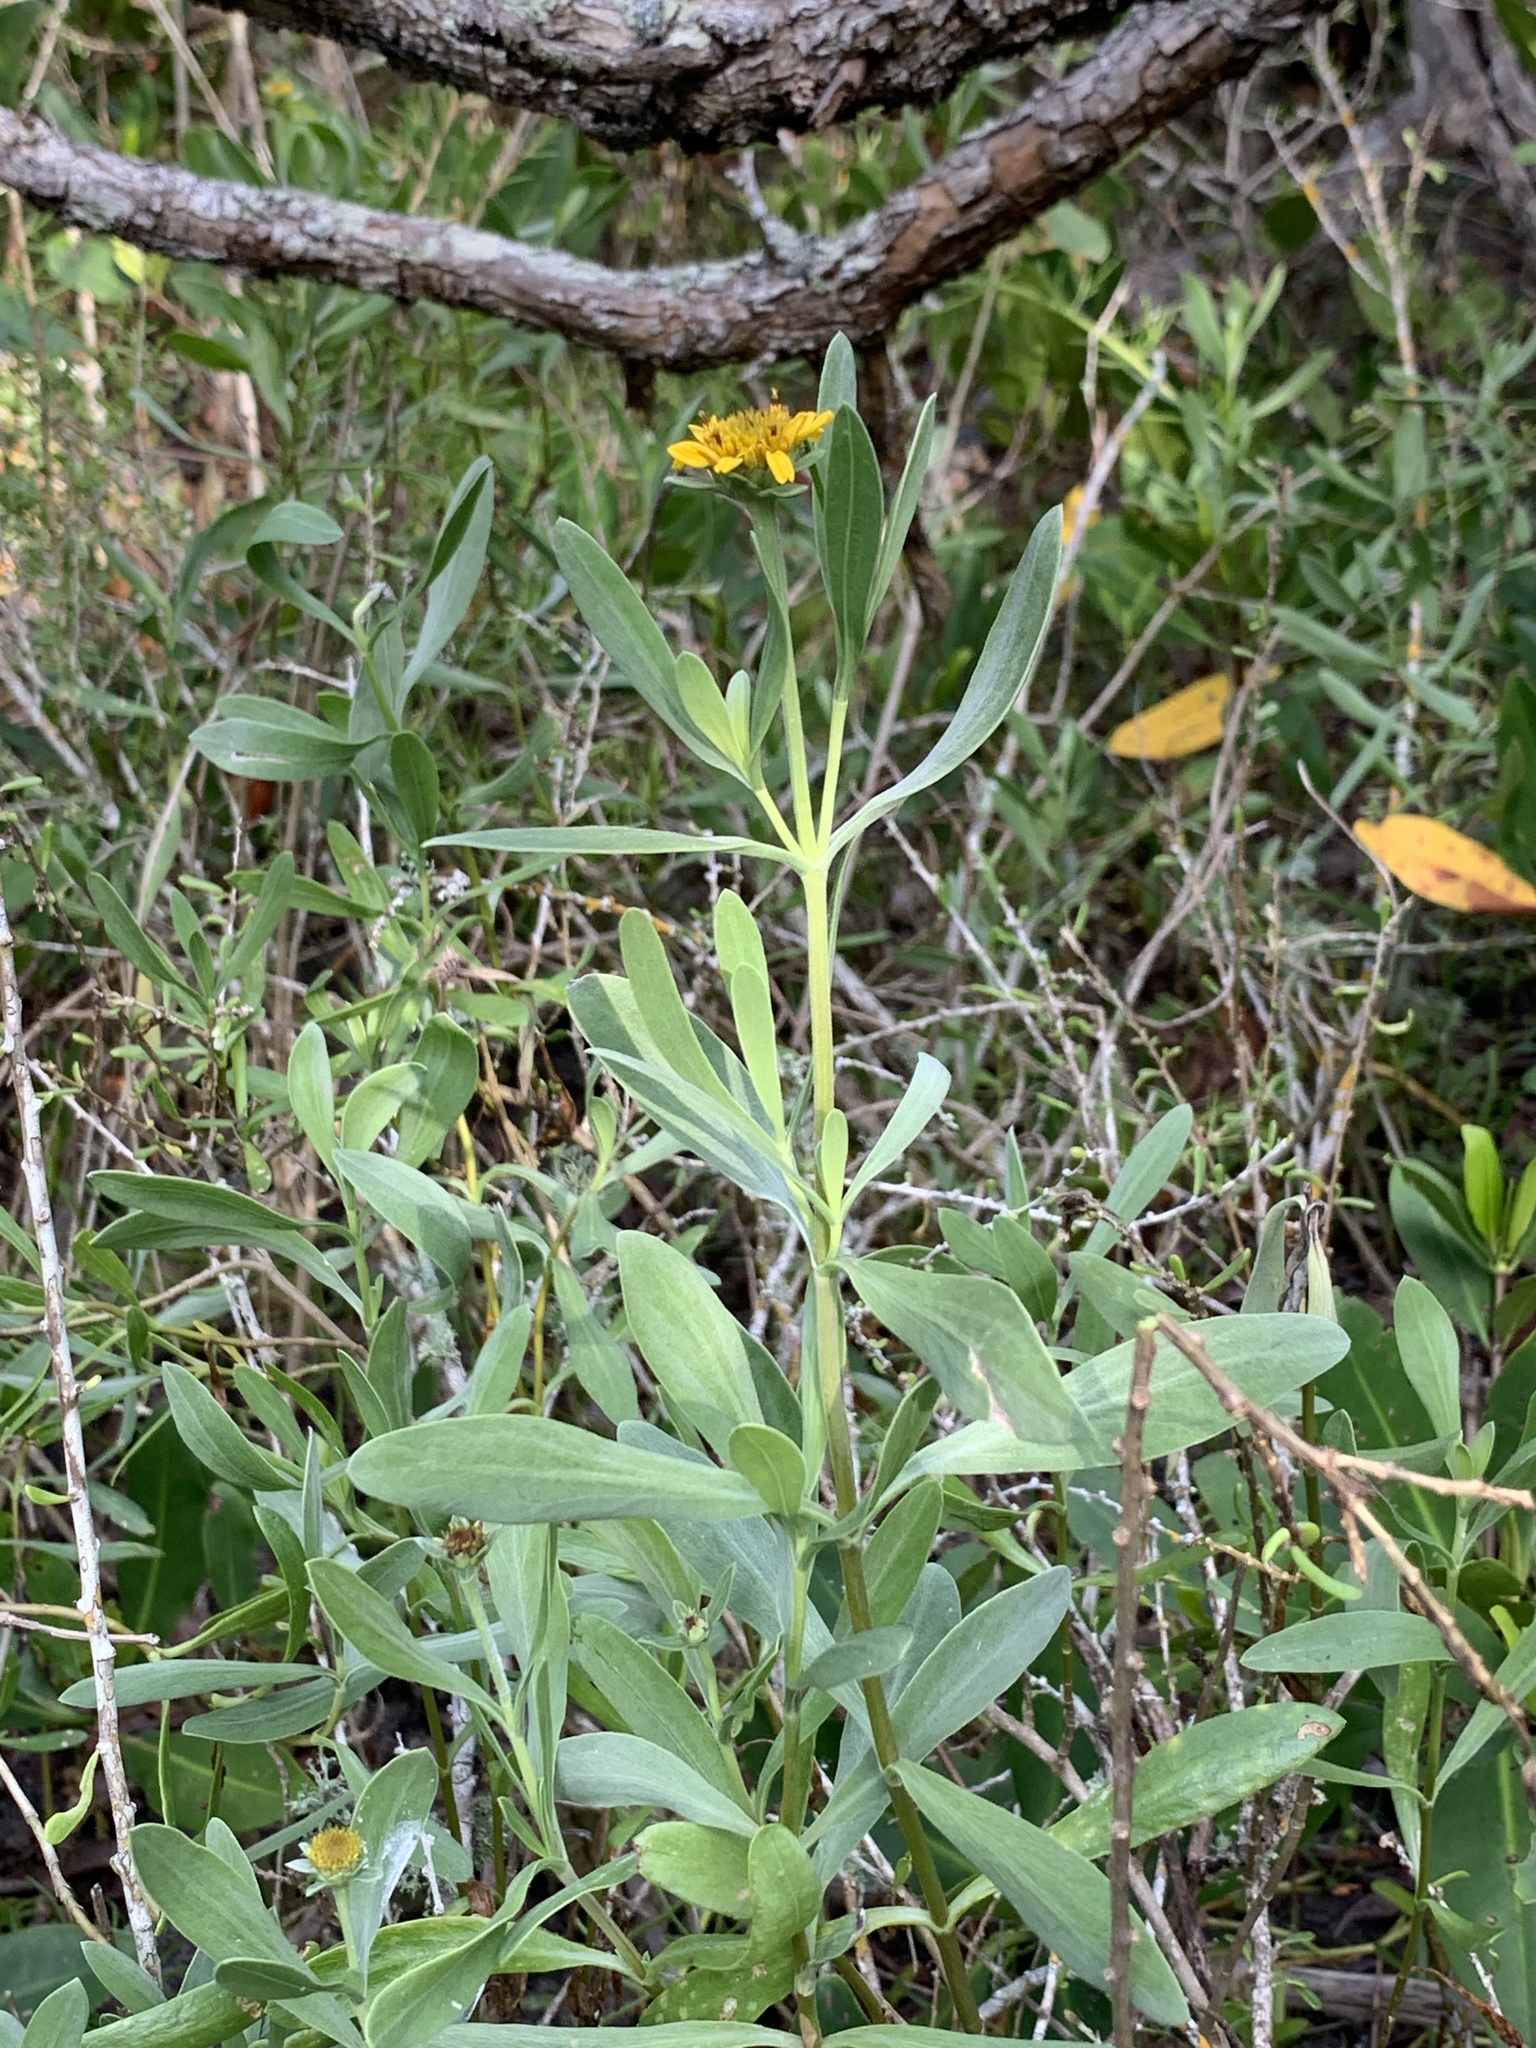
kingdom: Plantae
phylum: Tracheophyta
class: Magnoliopsida
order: Asterales
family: Asteraceae
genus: Borrichia
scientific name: Borrichia frutescens
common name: Sea oxeye
